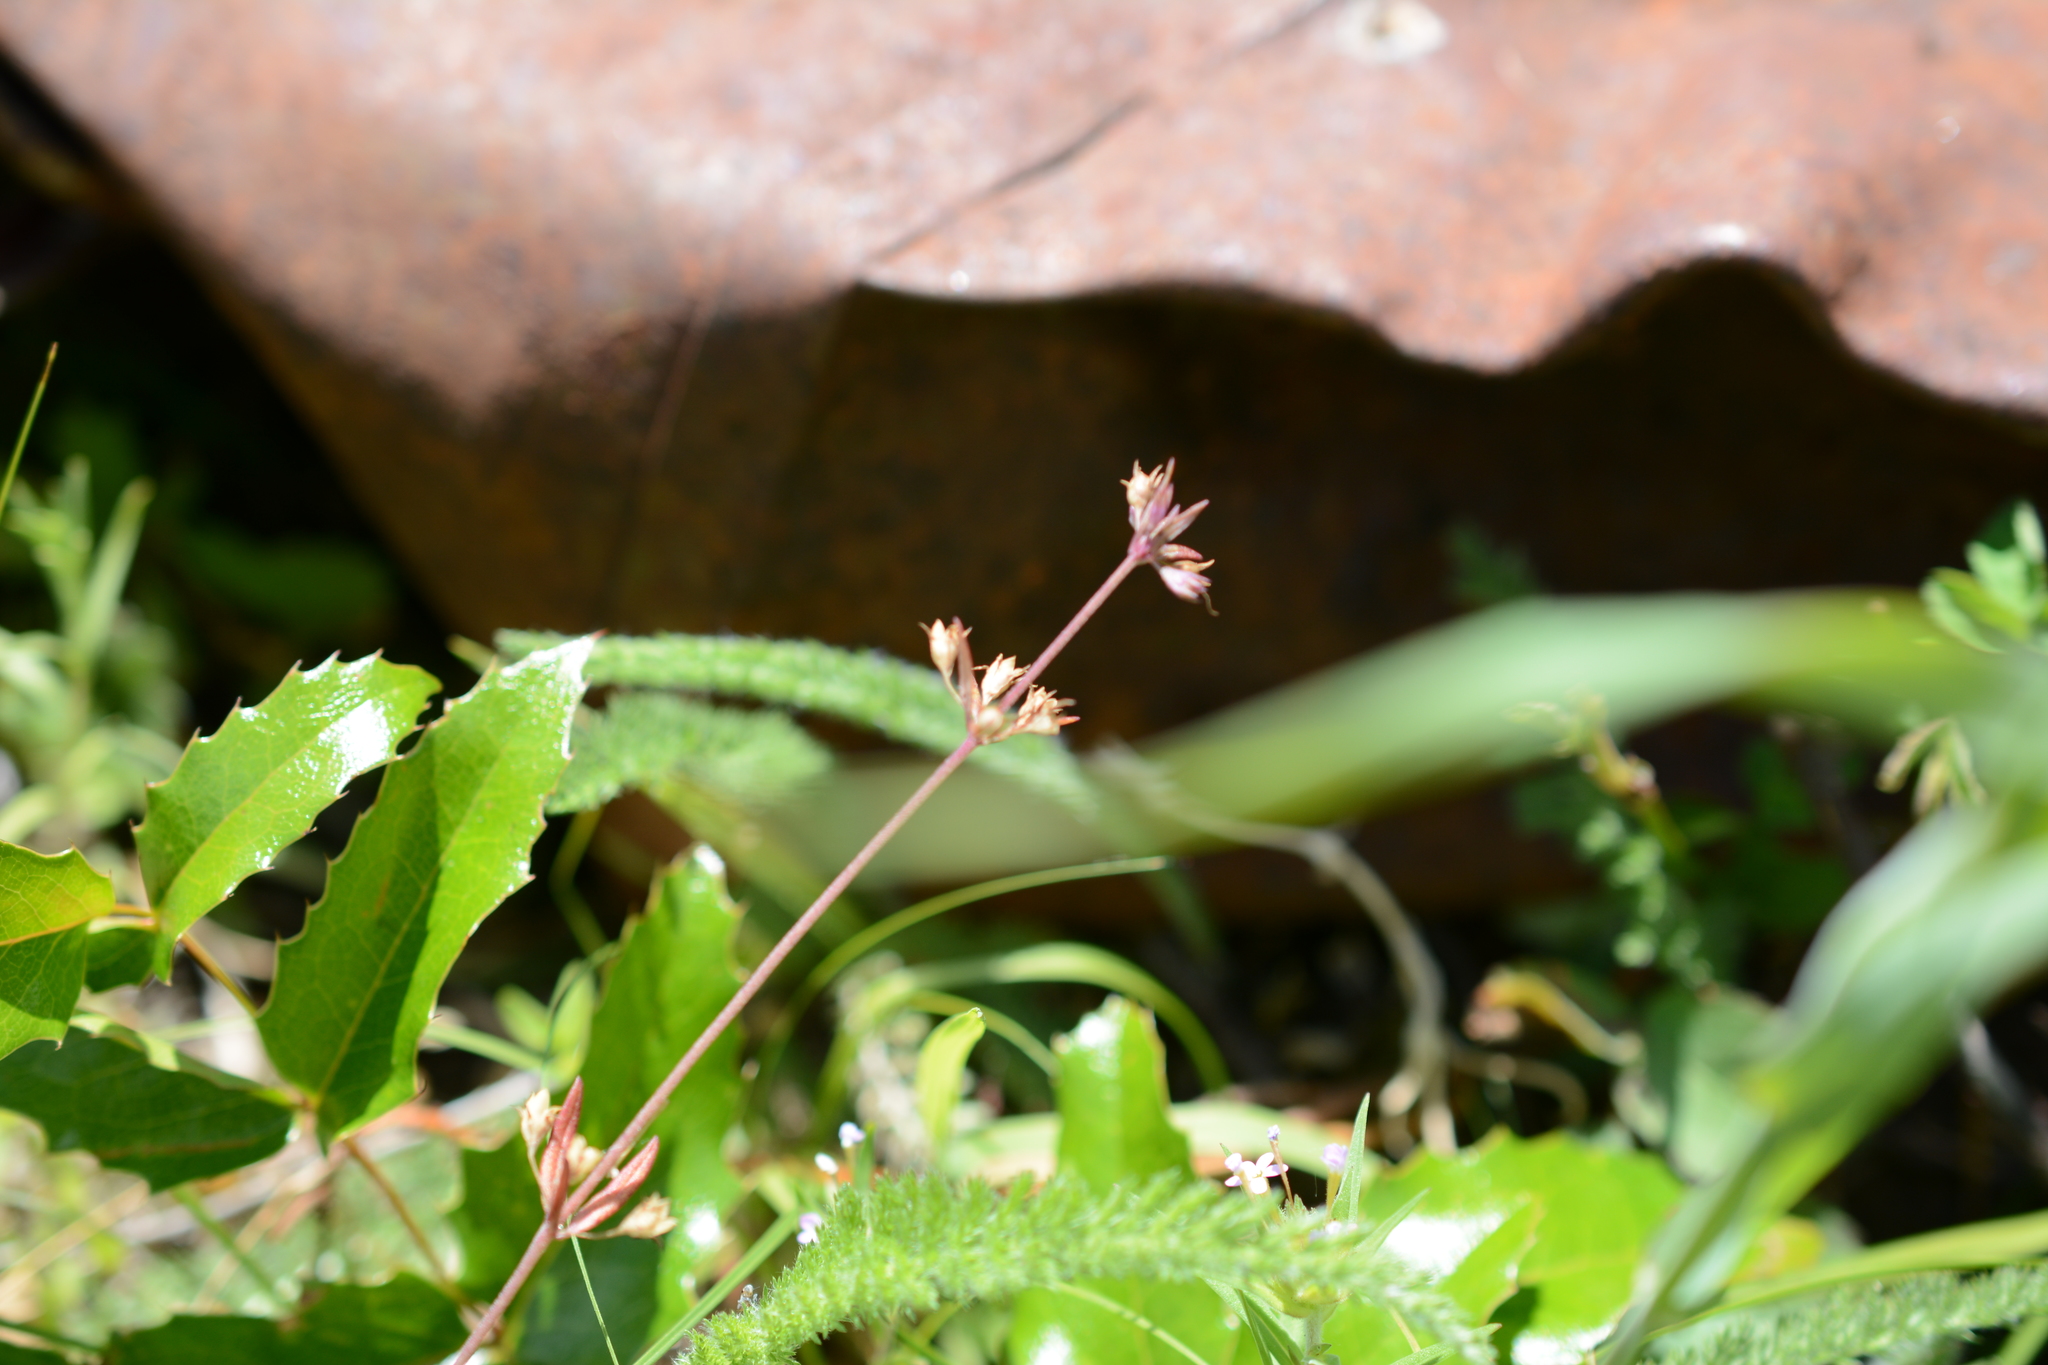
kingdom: Plantae
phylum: Tracheophyta
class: Magnoliopsida
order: Lamiales
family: Plantaginaceae
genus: Collinsia
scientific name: Collinsia parviflora
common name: Blue-lips
